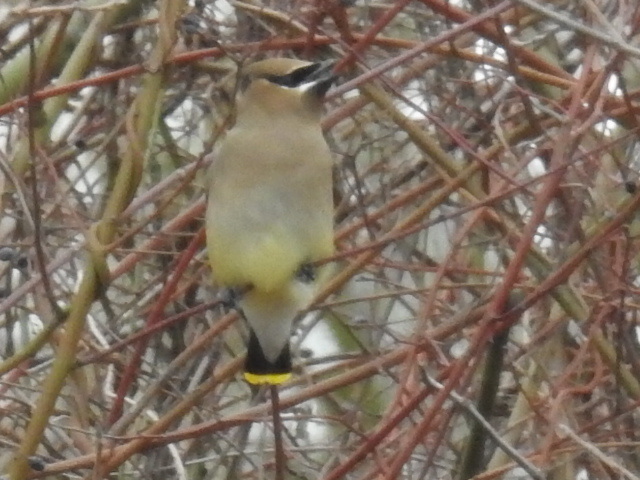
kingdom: Animalia
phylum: Chordata
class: Aves
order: Passeriformes
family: Bombycillidae
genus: Bombycilla
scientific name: Bombycilla cedrorum
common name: Cedar waxwing
